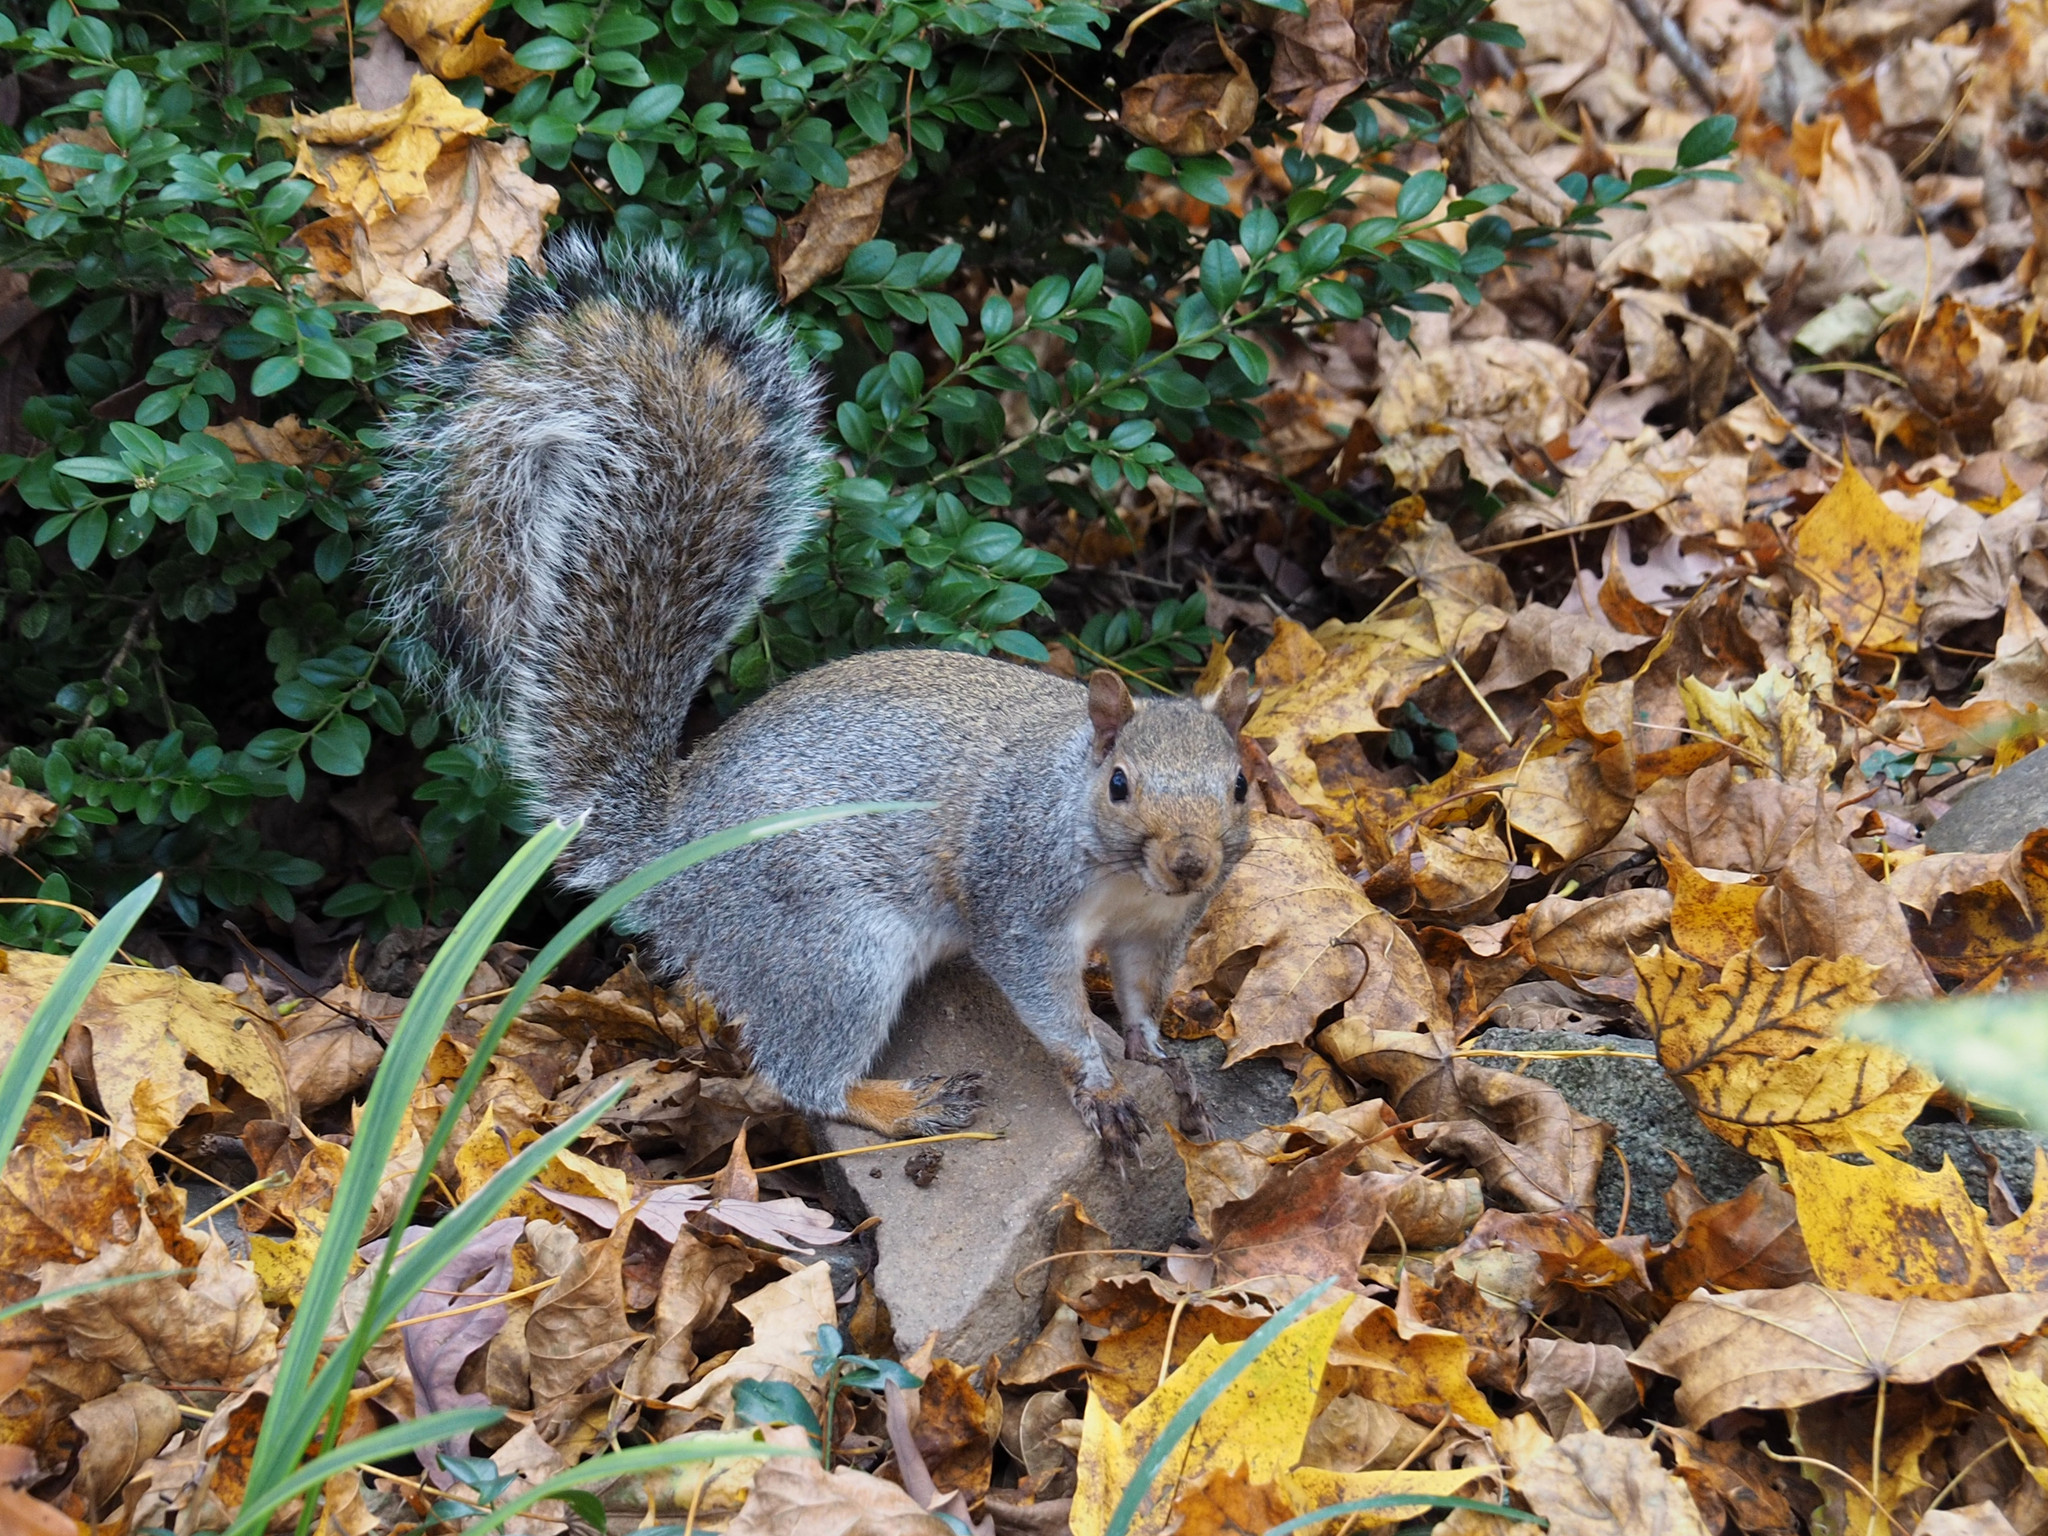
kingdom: Animalia
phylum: Chordata
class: Mammalia
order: Rodentia
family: Sciuridae
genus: Sciurus
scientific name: Sciurus carolinensis
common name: Eastern gray squirrel
